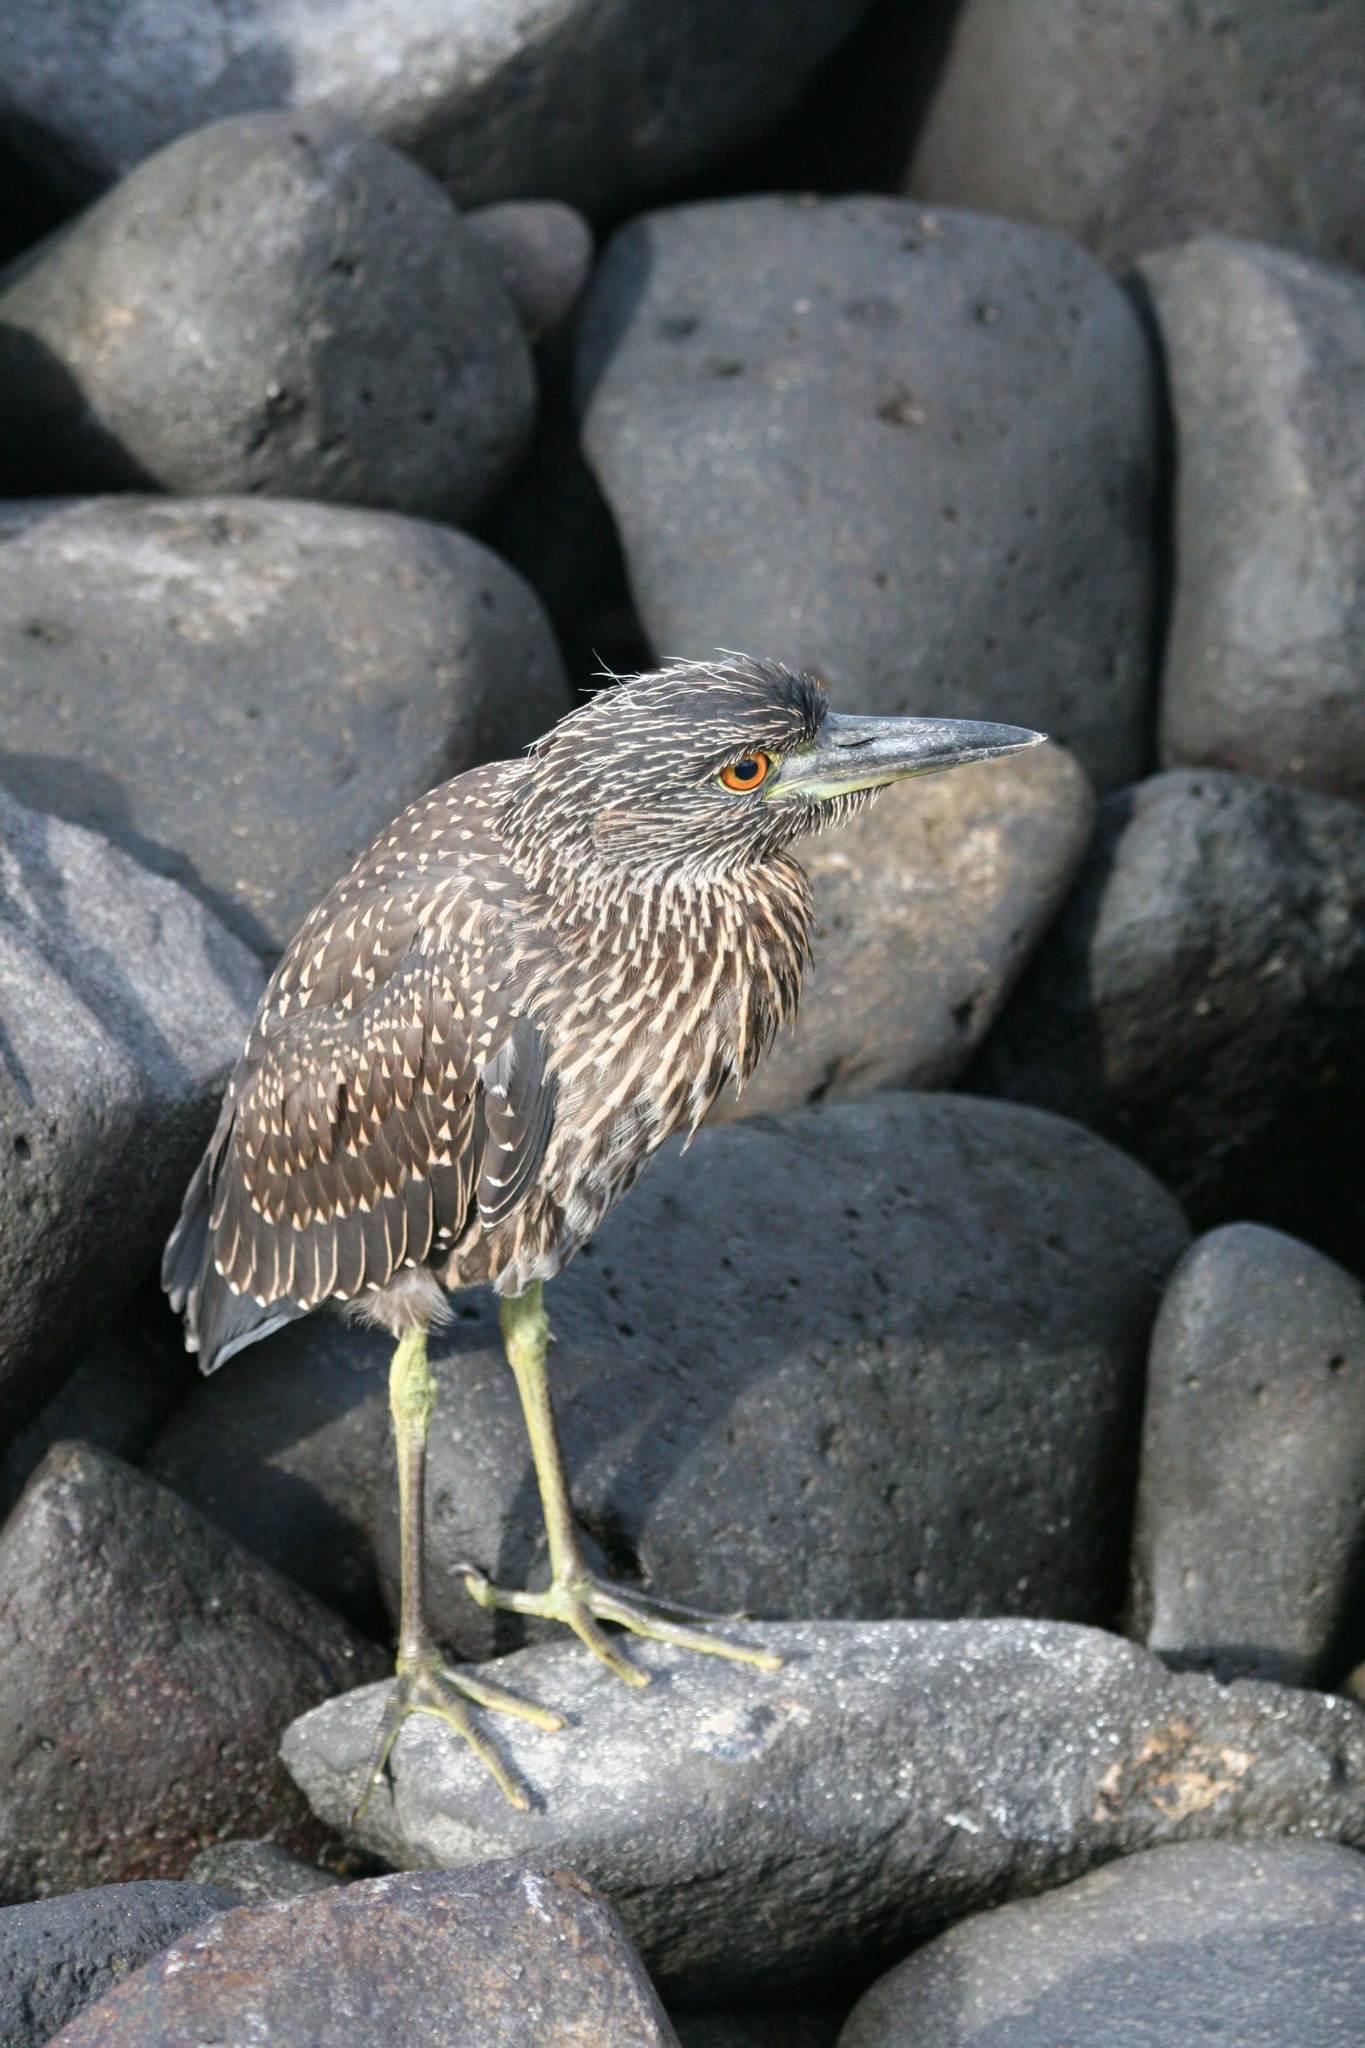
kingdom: Animalia
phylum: Chordata
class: Aves
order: Pelecaniformes
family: Ardeidae
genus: Nyctanassa
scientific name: Nyctanassa violacea
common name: Yellow-crowned night heron
